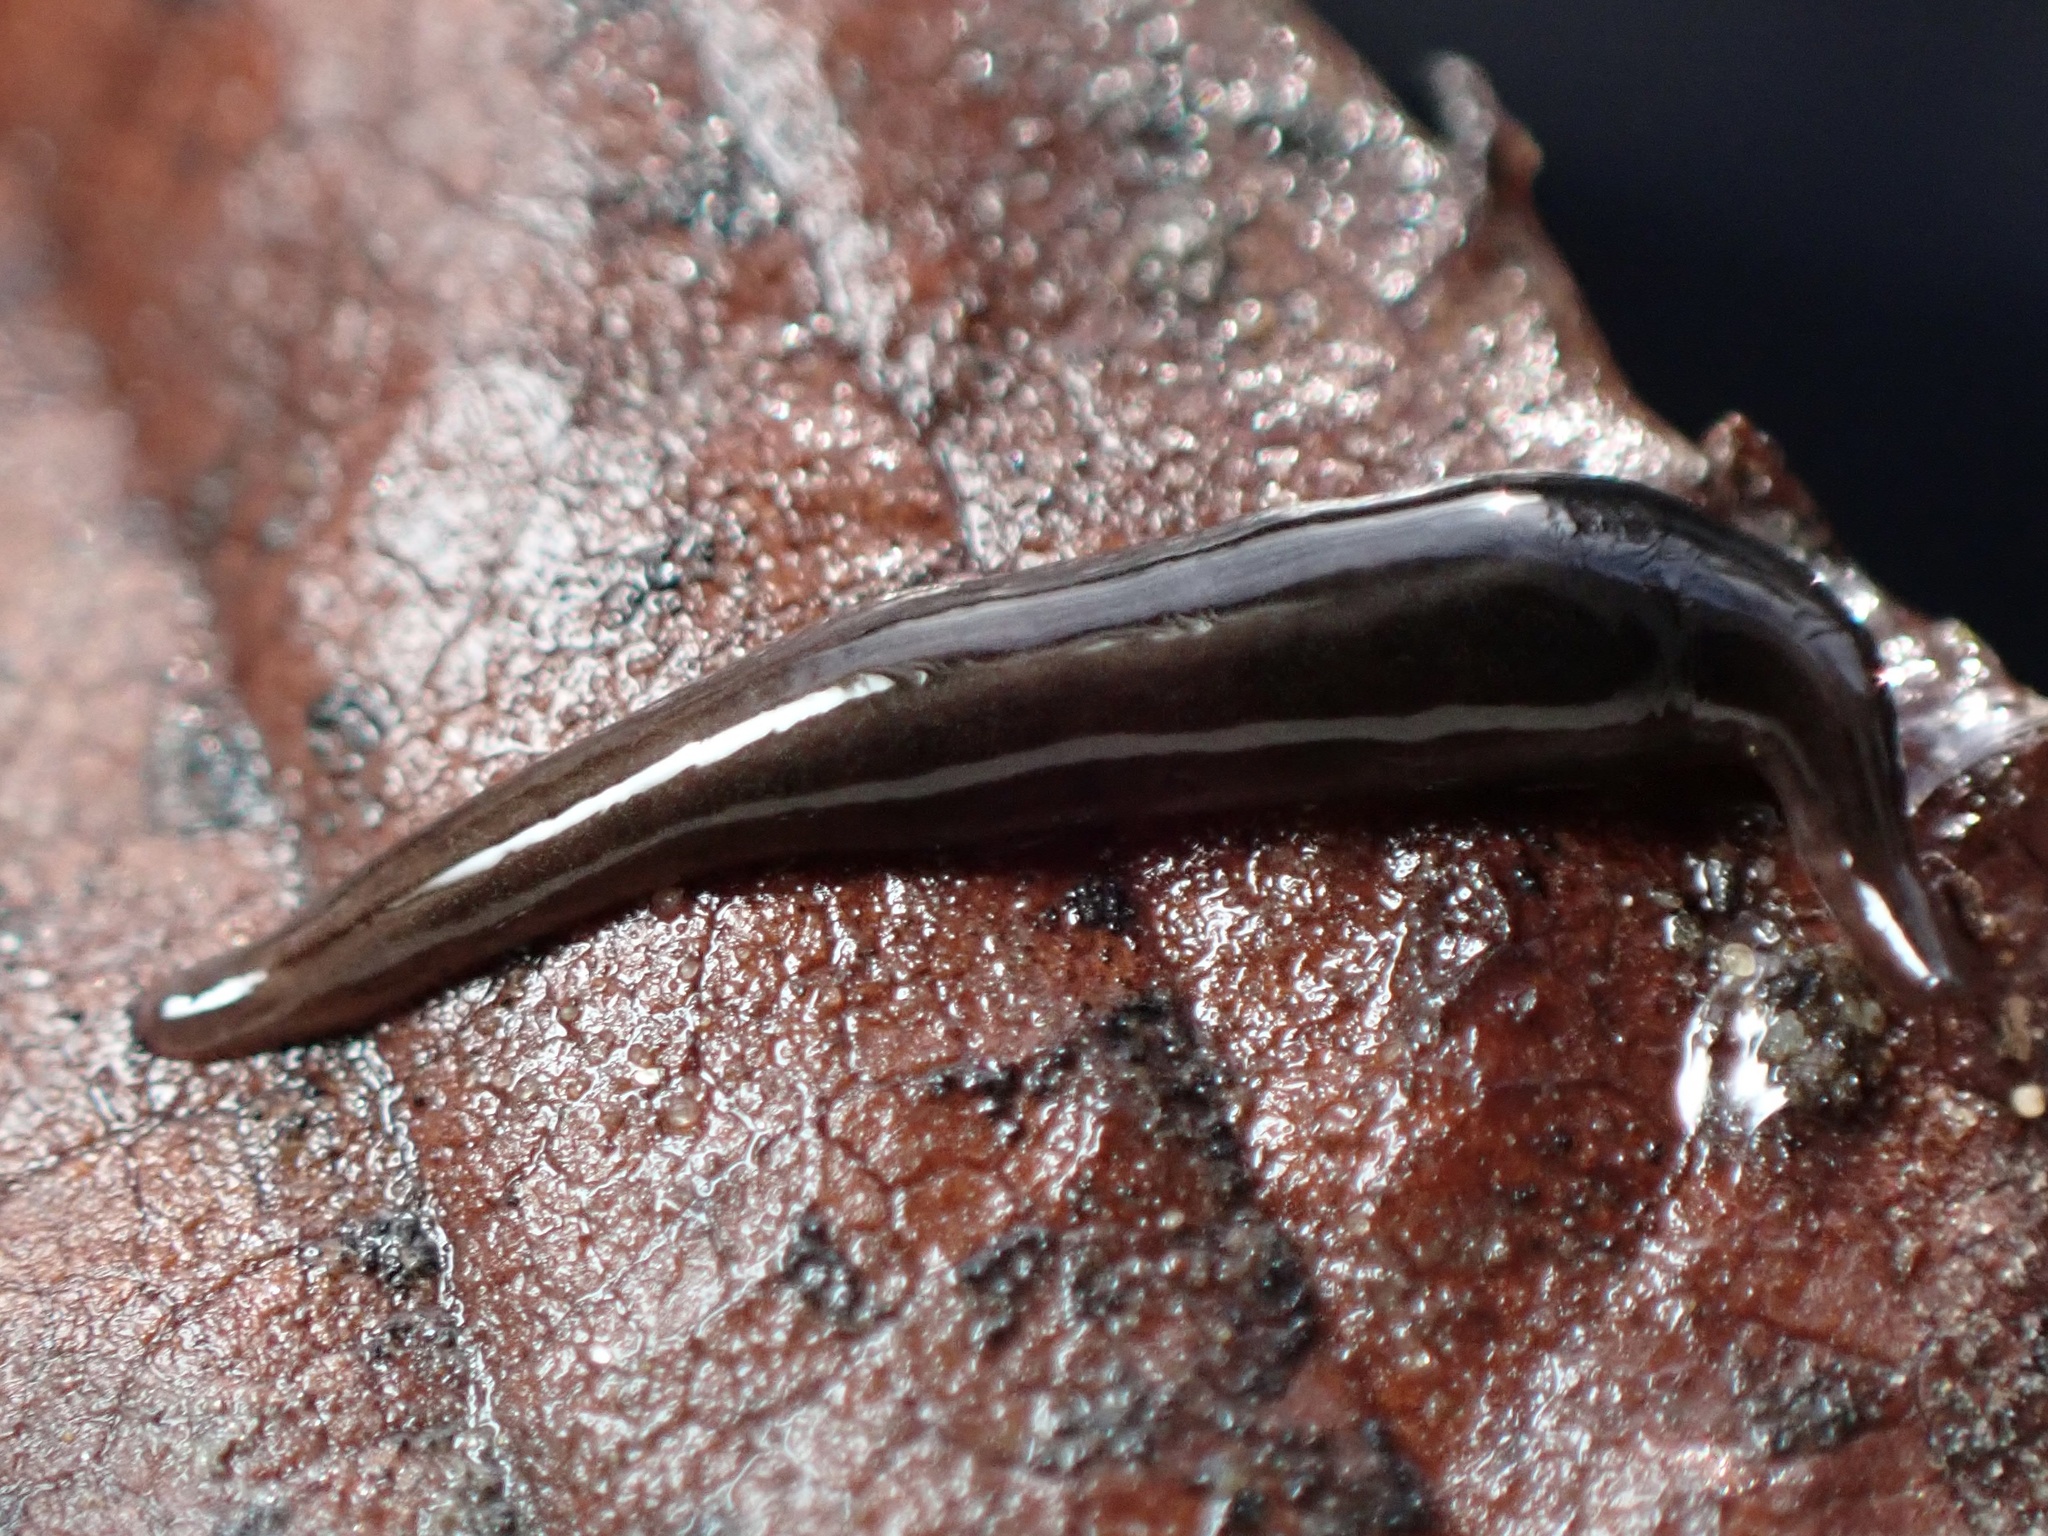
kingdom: Animalia
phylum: Platyhelminthes
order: Tricladida
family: Geoplanidae
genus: Parakontikia
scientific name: Parakontikia ventrolineata
